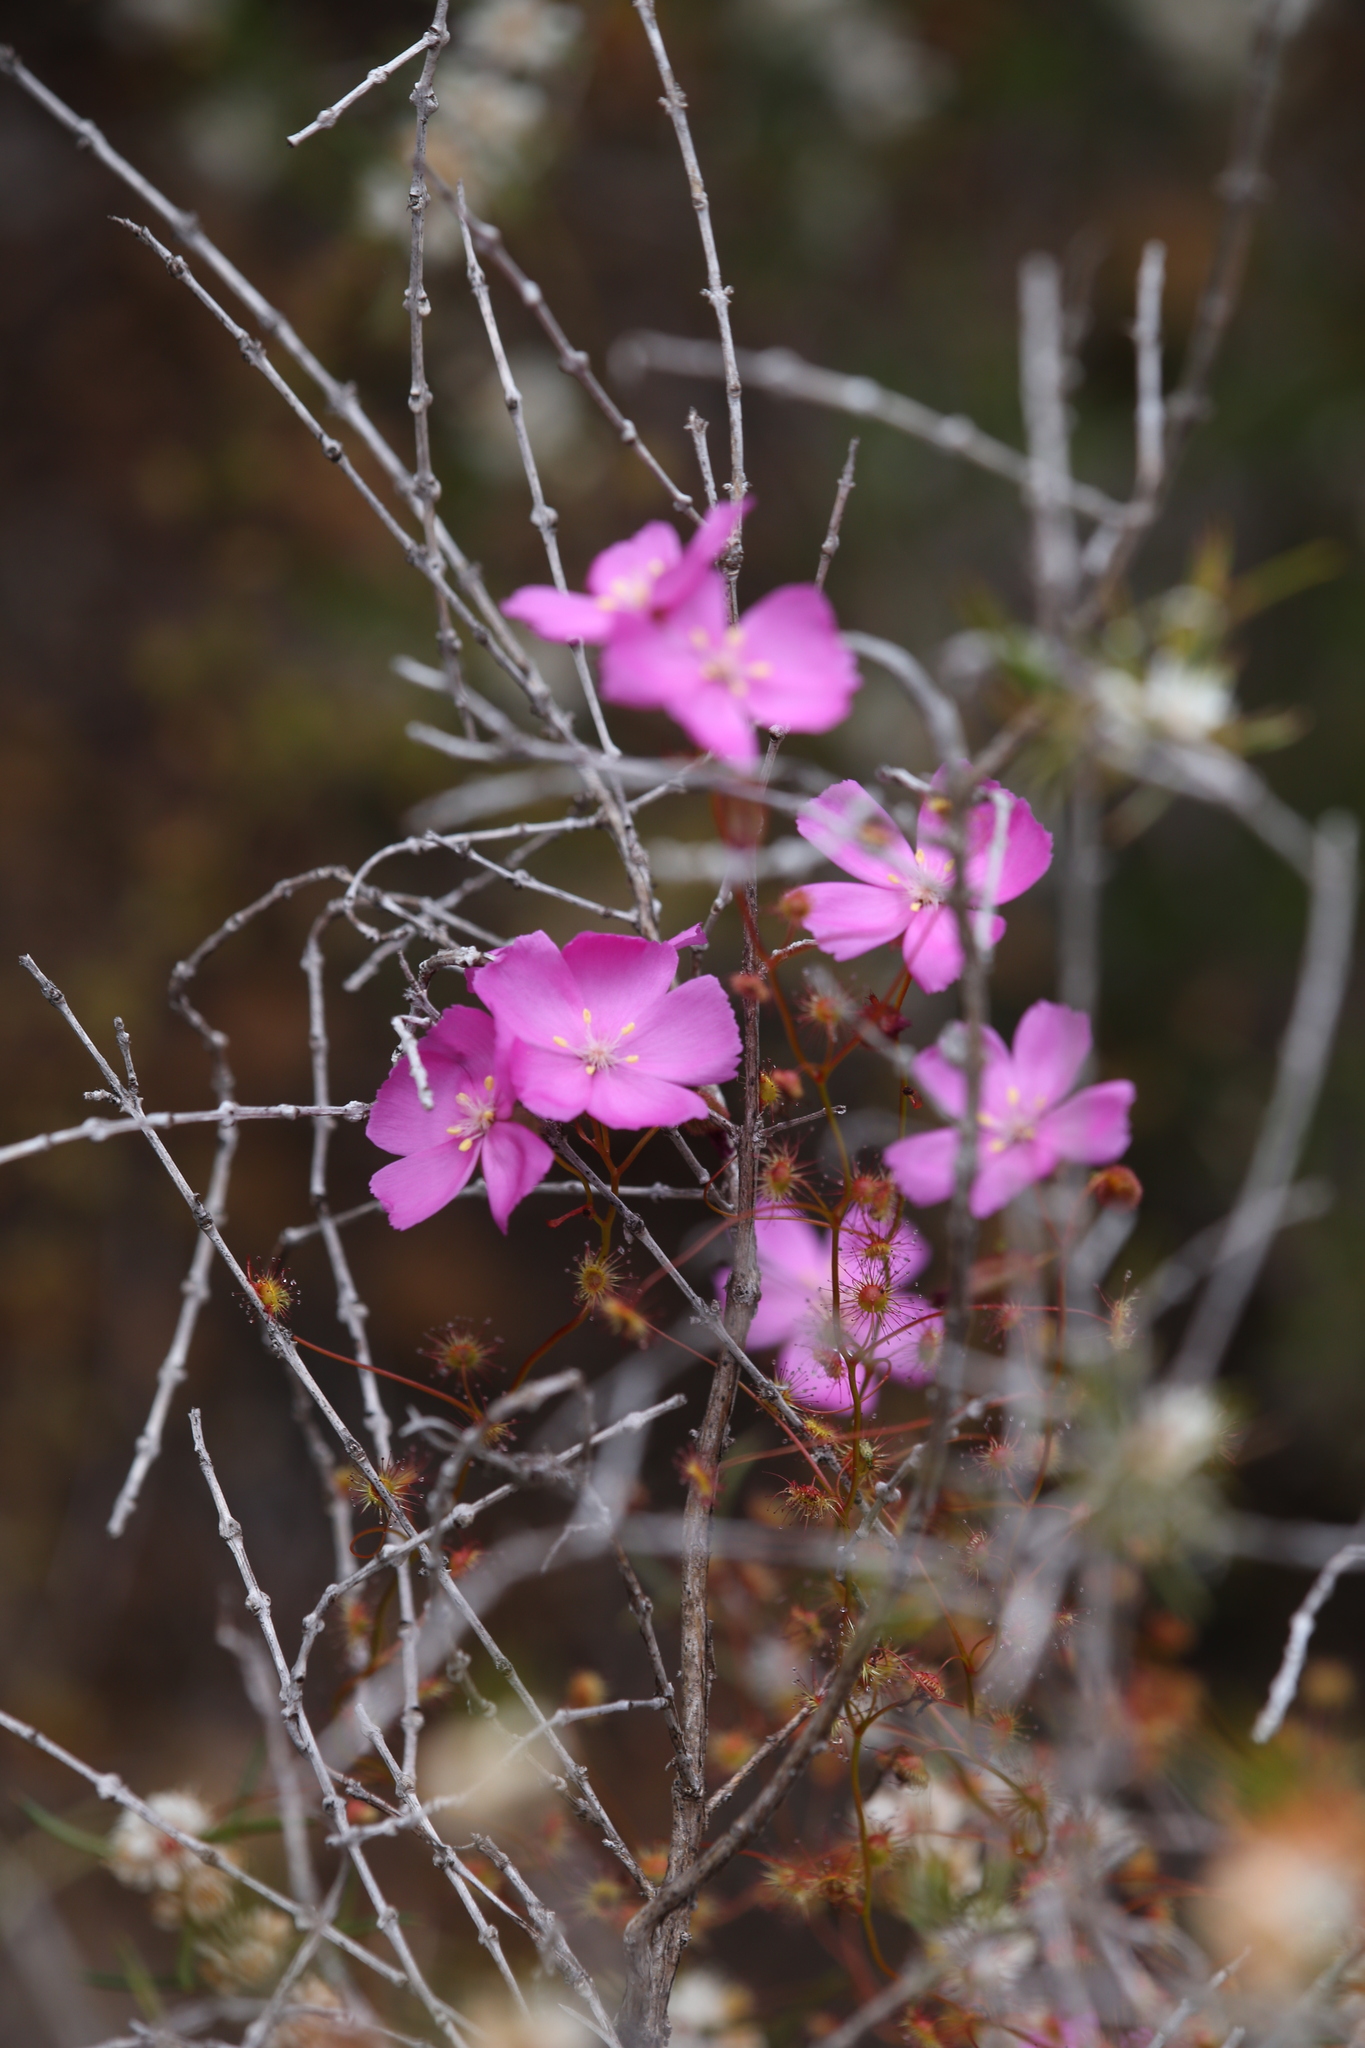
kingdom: Plantae
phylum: Tracheophyta
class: Magnoliopsida
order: Caryophyllales
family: Droseraceae
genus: Drosera
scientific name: Drosera
